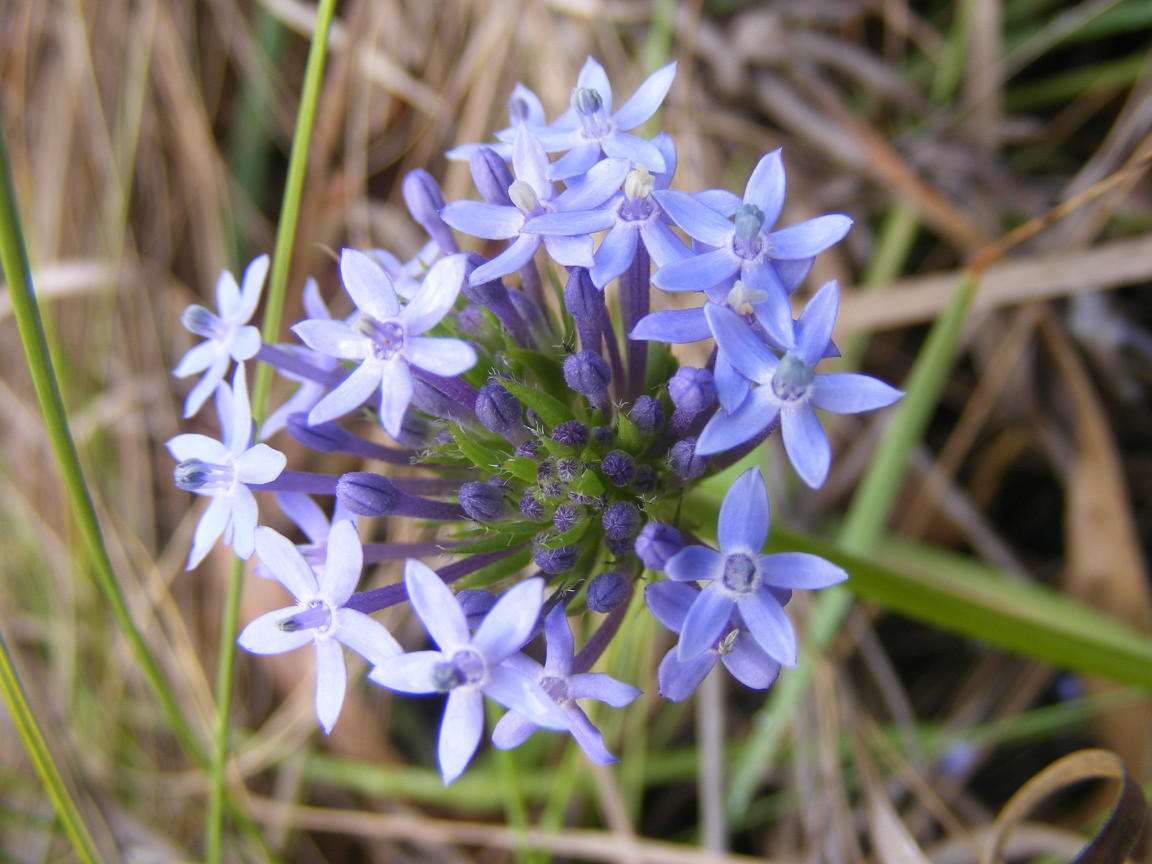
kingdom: Plantae
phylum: Tracheophyta
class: Magnoliopsida
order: Gentianales
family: Rubiaceae
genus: Pentanisia
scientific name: Pentanisia angustifolia
